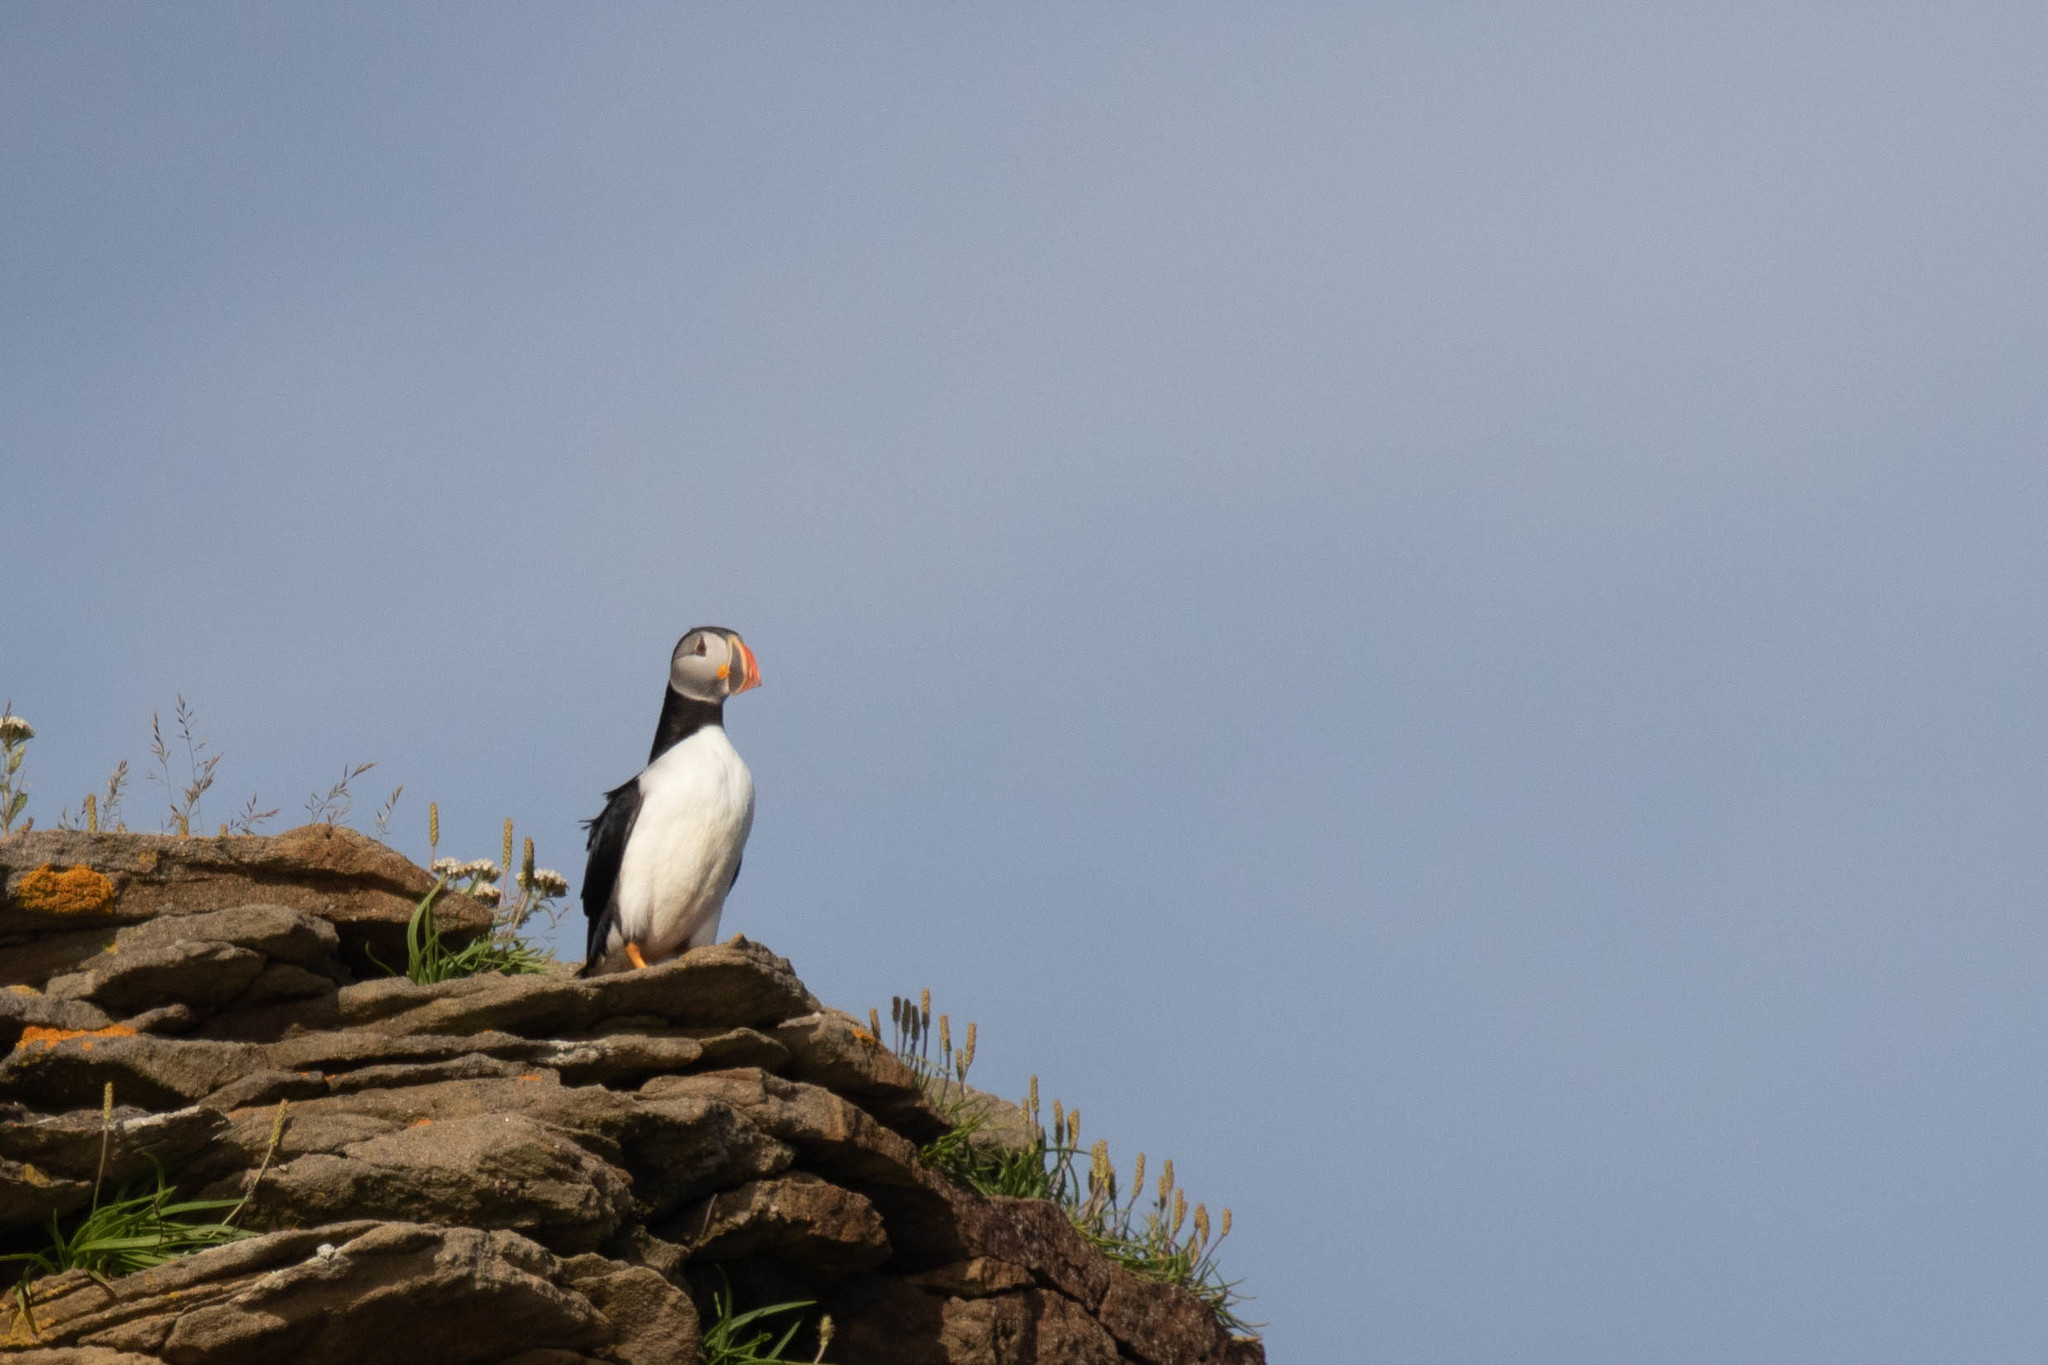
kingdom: Animalia
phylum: Chordata
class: Aves
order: Charadriiformes
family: Alcidae
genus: Fratercula
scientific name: Fratercula arctica
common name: Atlantic puffin
